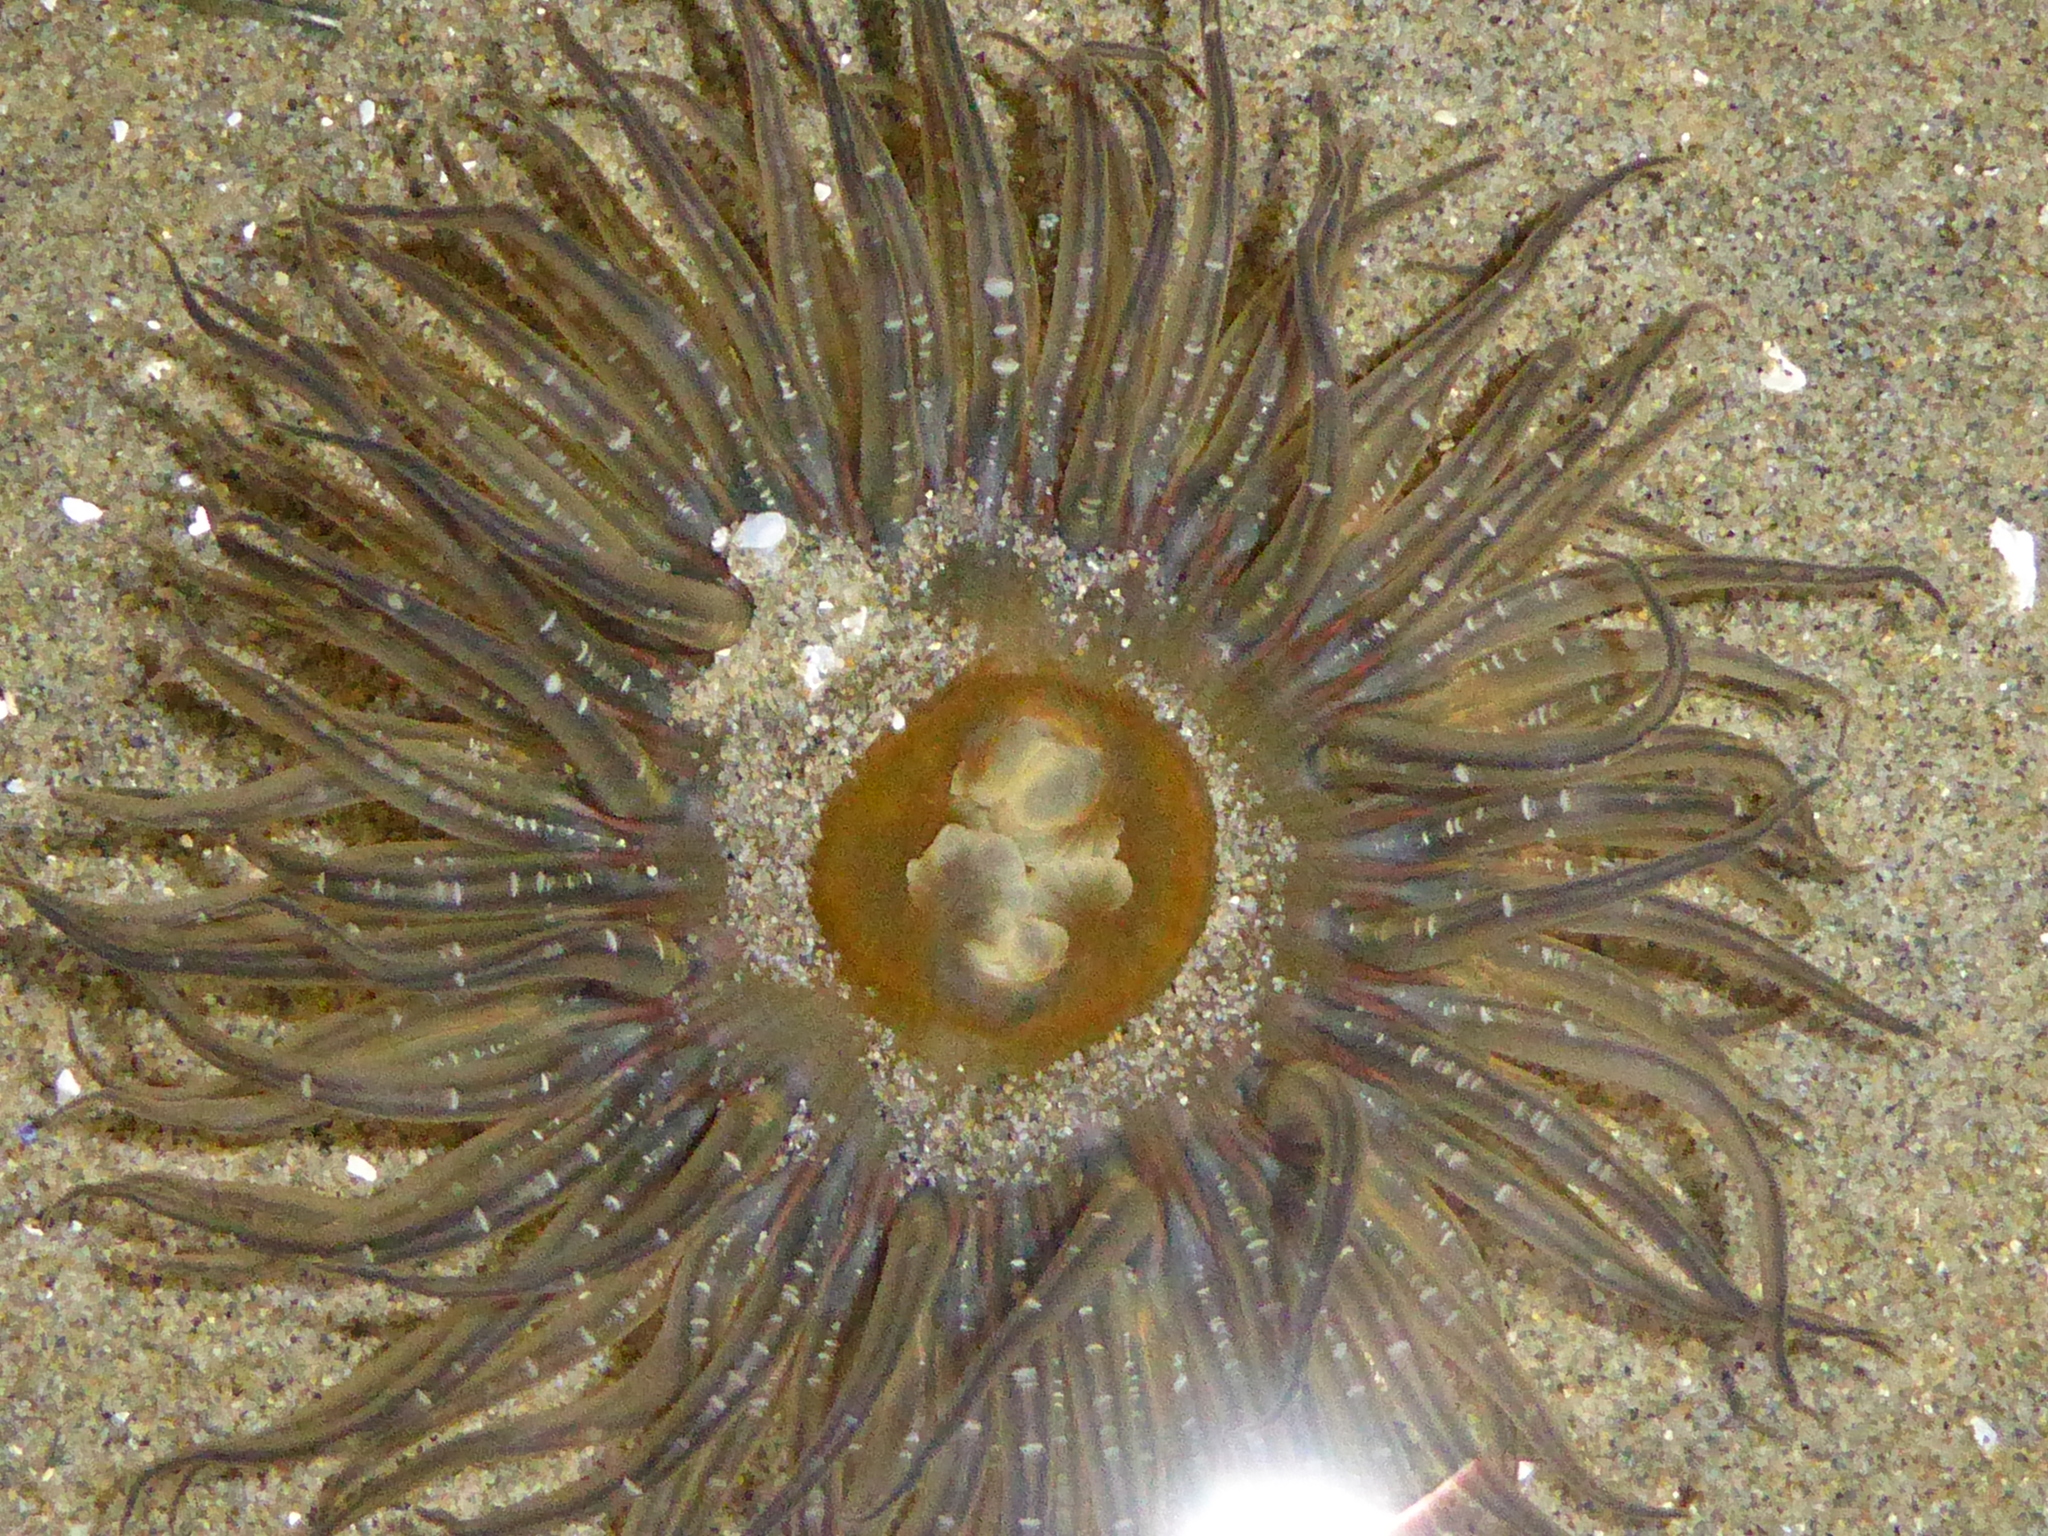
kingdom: Animalia
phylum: Cnidaria
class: Anthozoa
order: Actiniaria
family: Actiniidae
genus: Anthopleura
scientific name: Anthopleura artemisia
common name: Buried sea anemone
